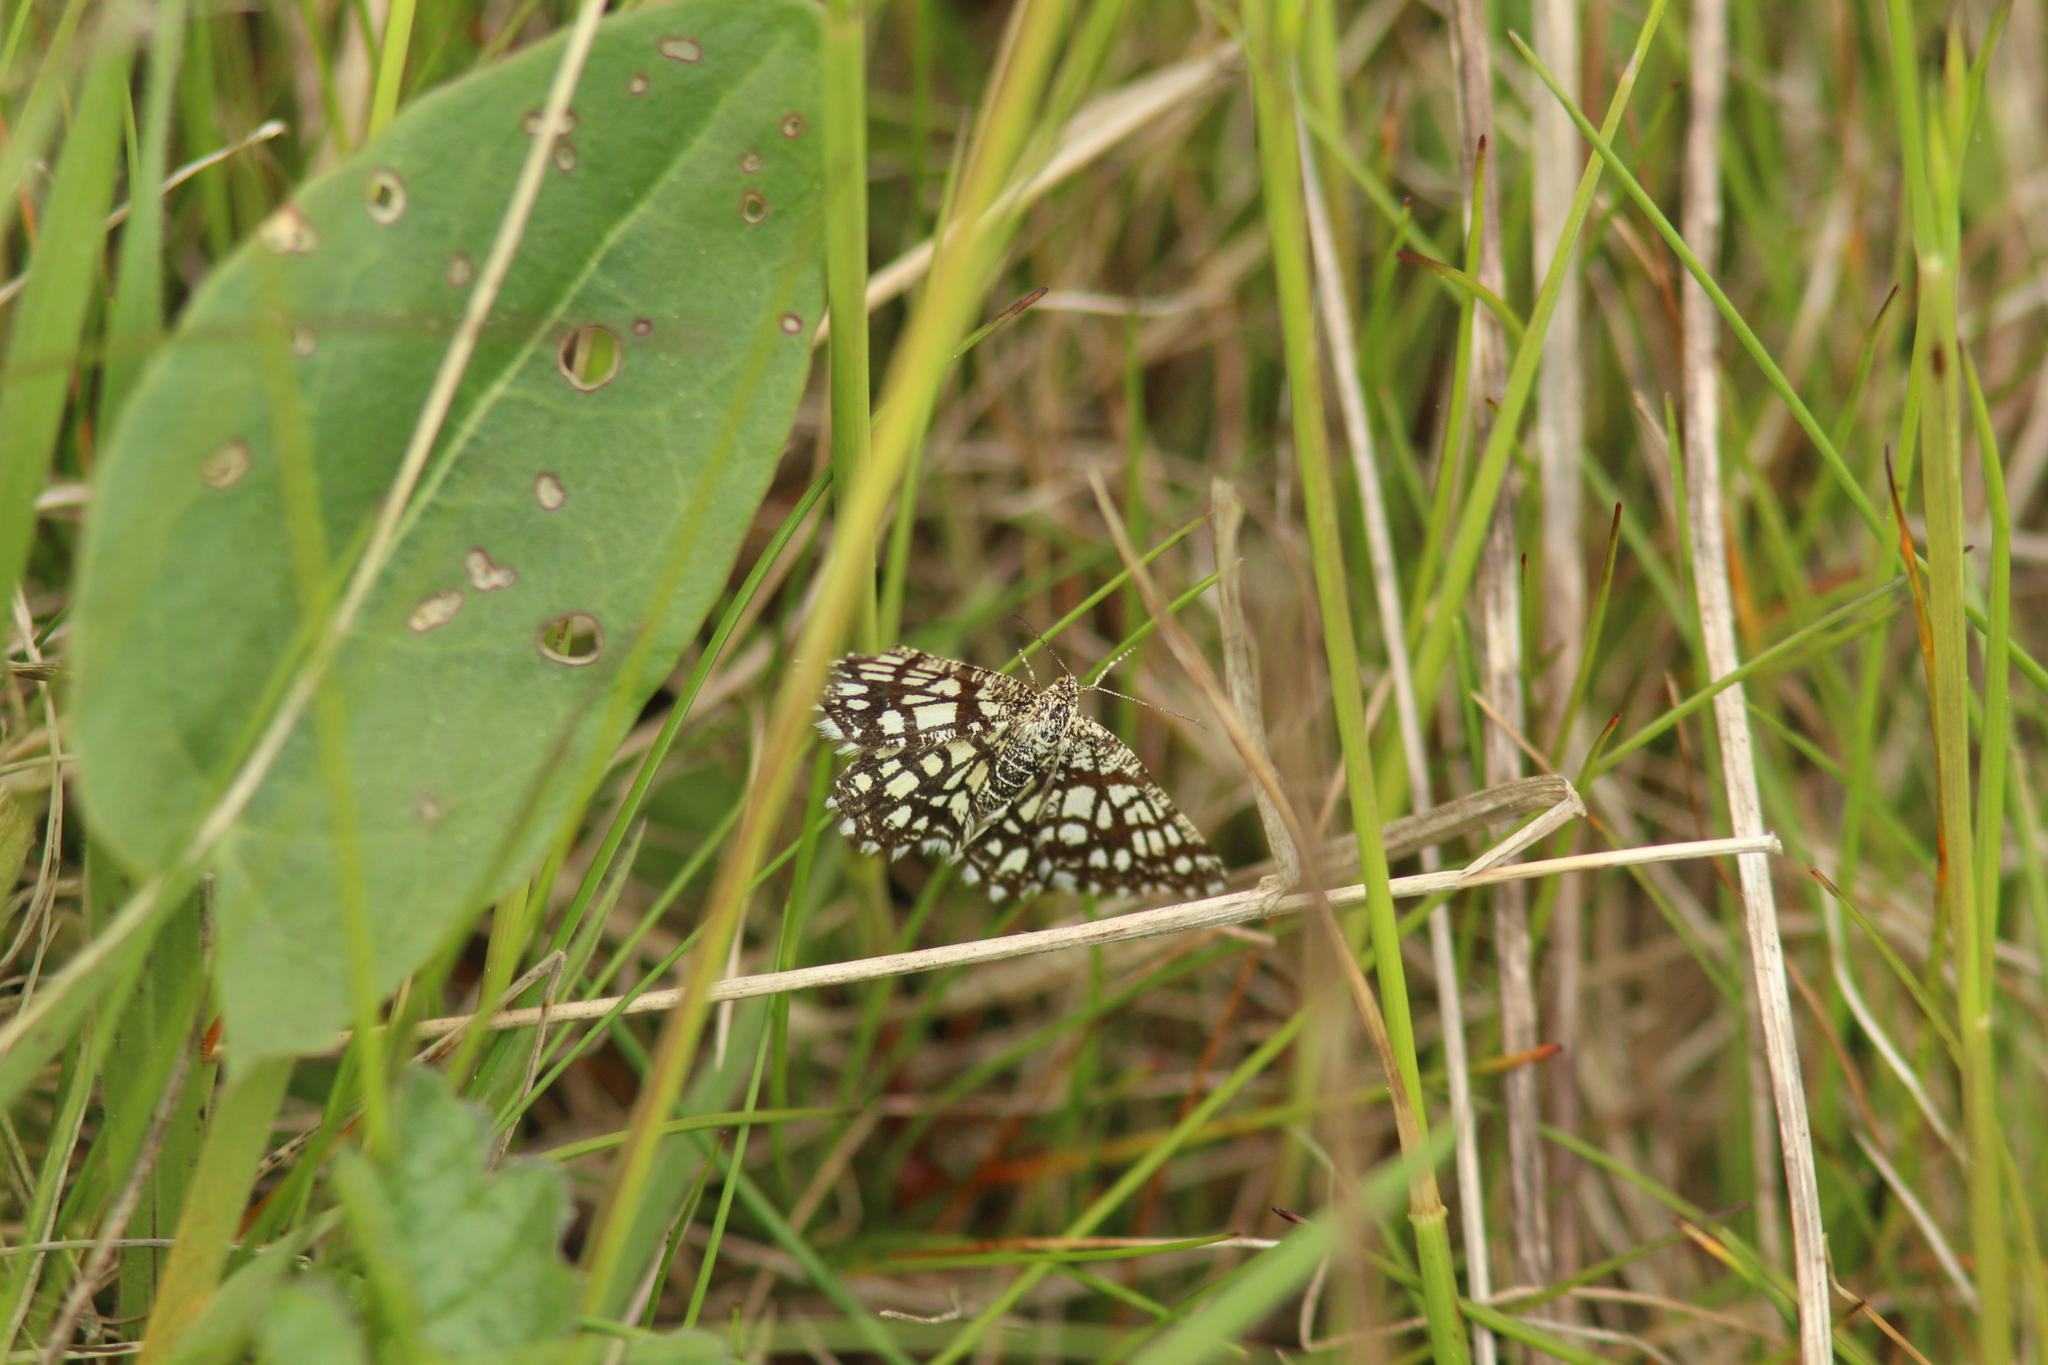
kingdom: Animalia
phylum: Arthropoda
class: Insecta
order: Lepidoptera
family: Geometridae
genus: Chiasmia
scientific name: Chiasmia clathrata
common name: Latticed heath
